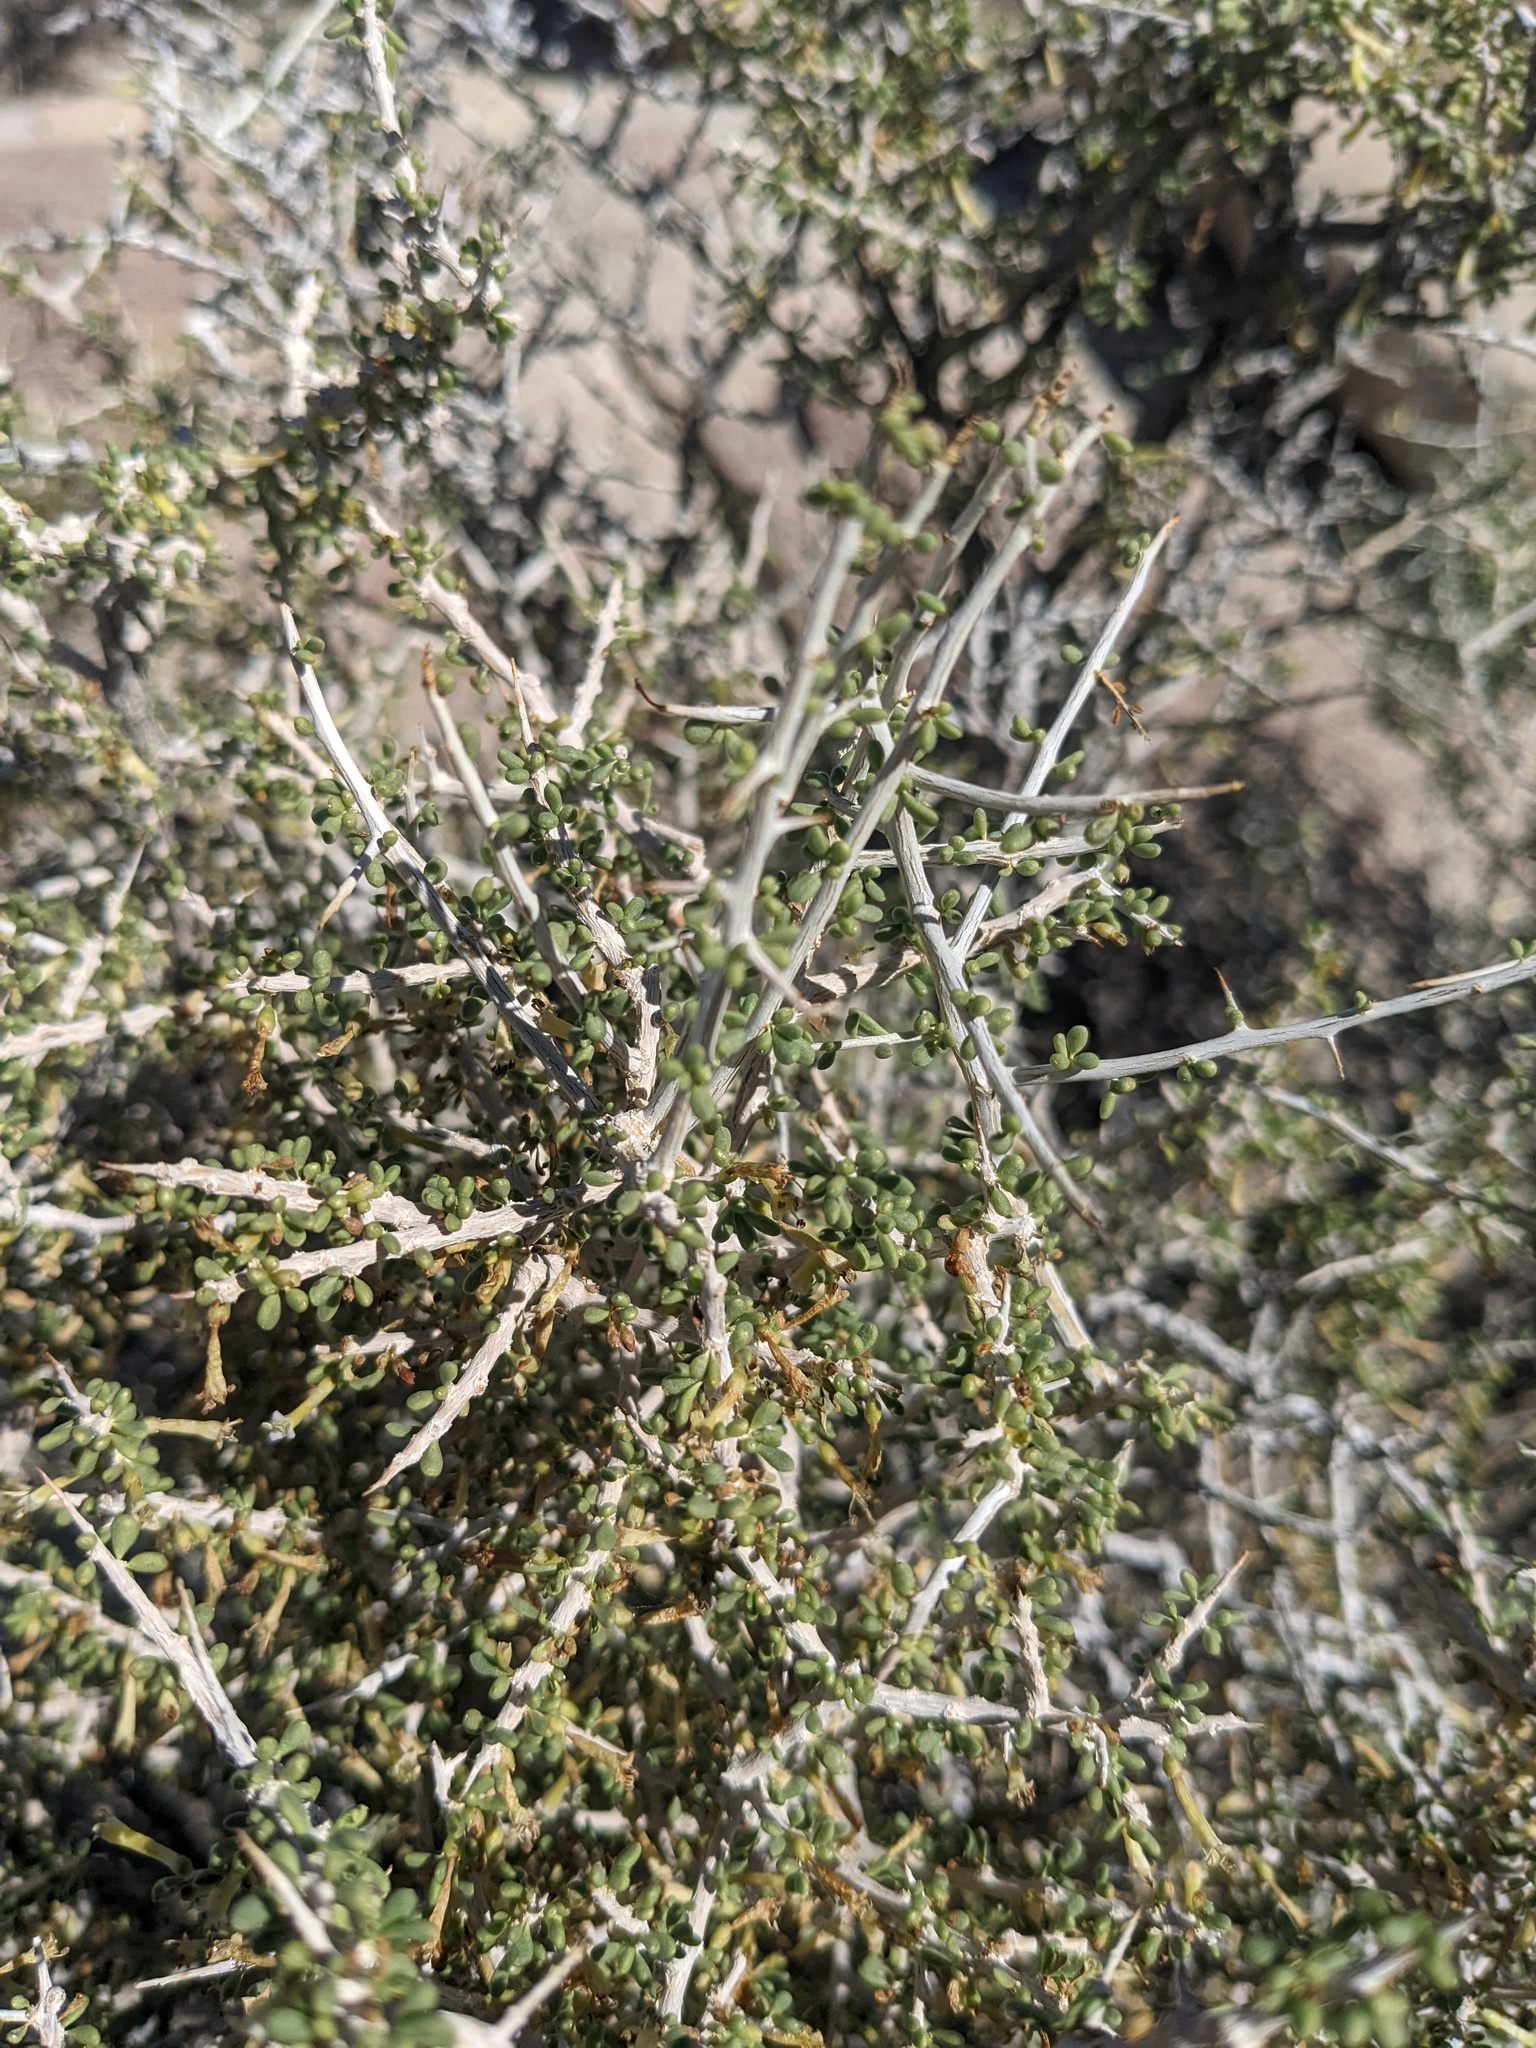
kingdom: Plantae
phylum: Tracheophyta
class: Magnoliopsida
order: Solanales
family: Solanaceae
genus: Lycium
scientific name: Lycium andersonii
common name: Water-jacket
